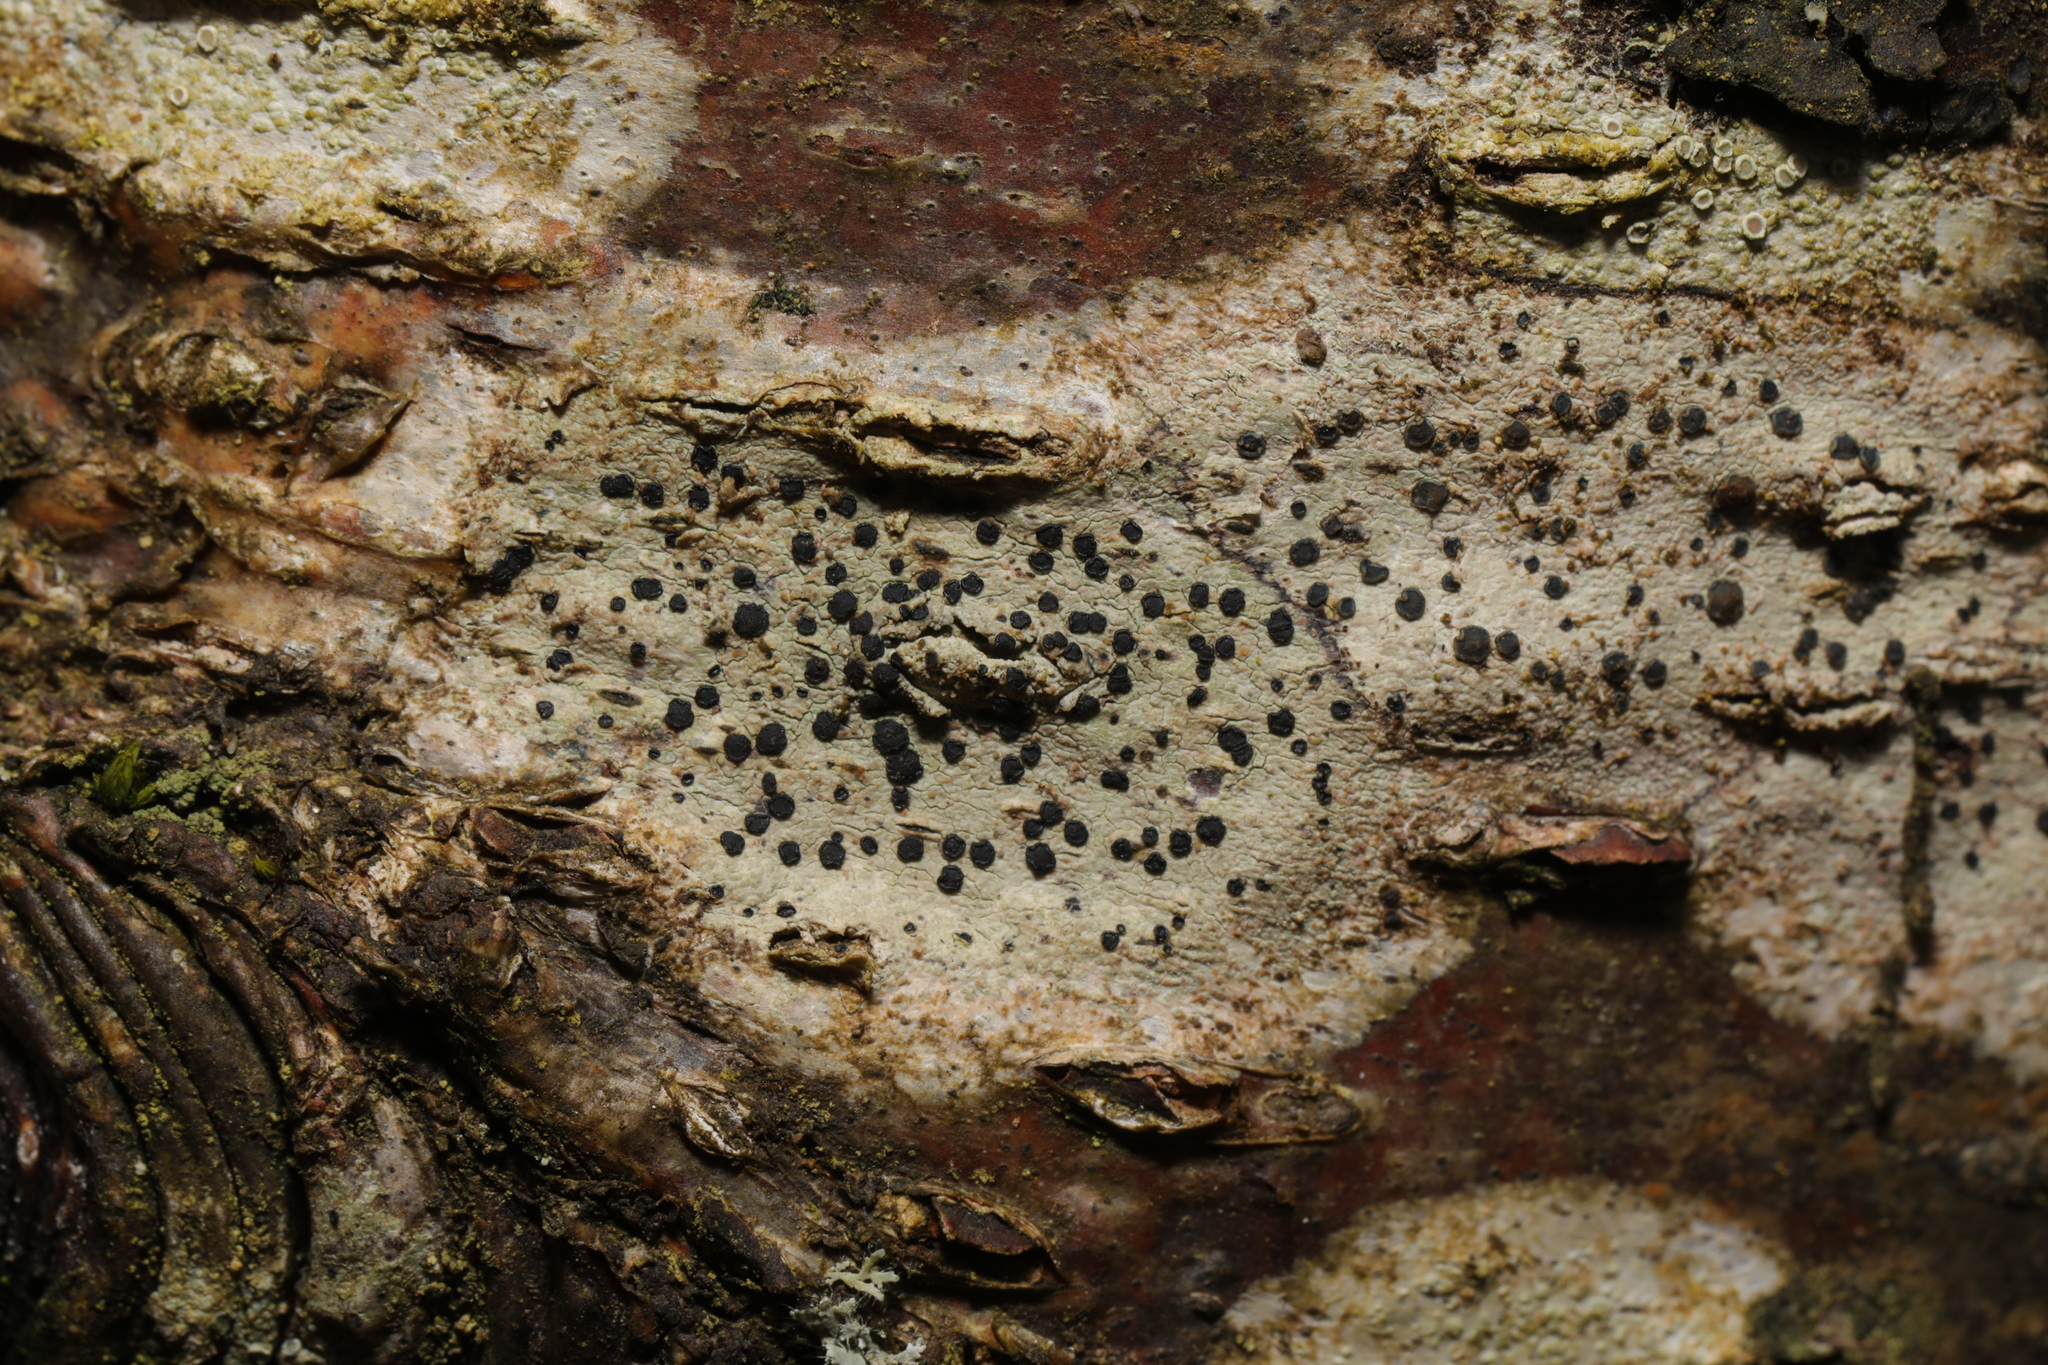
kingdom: Fungi
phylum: Ascomycota
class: Lecanoromycetes
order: Lecanorales
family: Lecanoraceae
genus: Lecidella
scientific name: Lecidella elaeochroma
